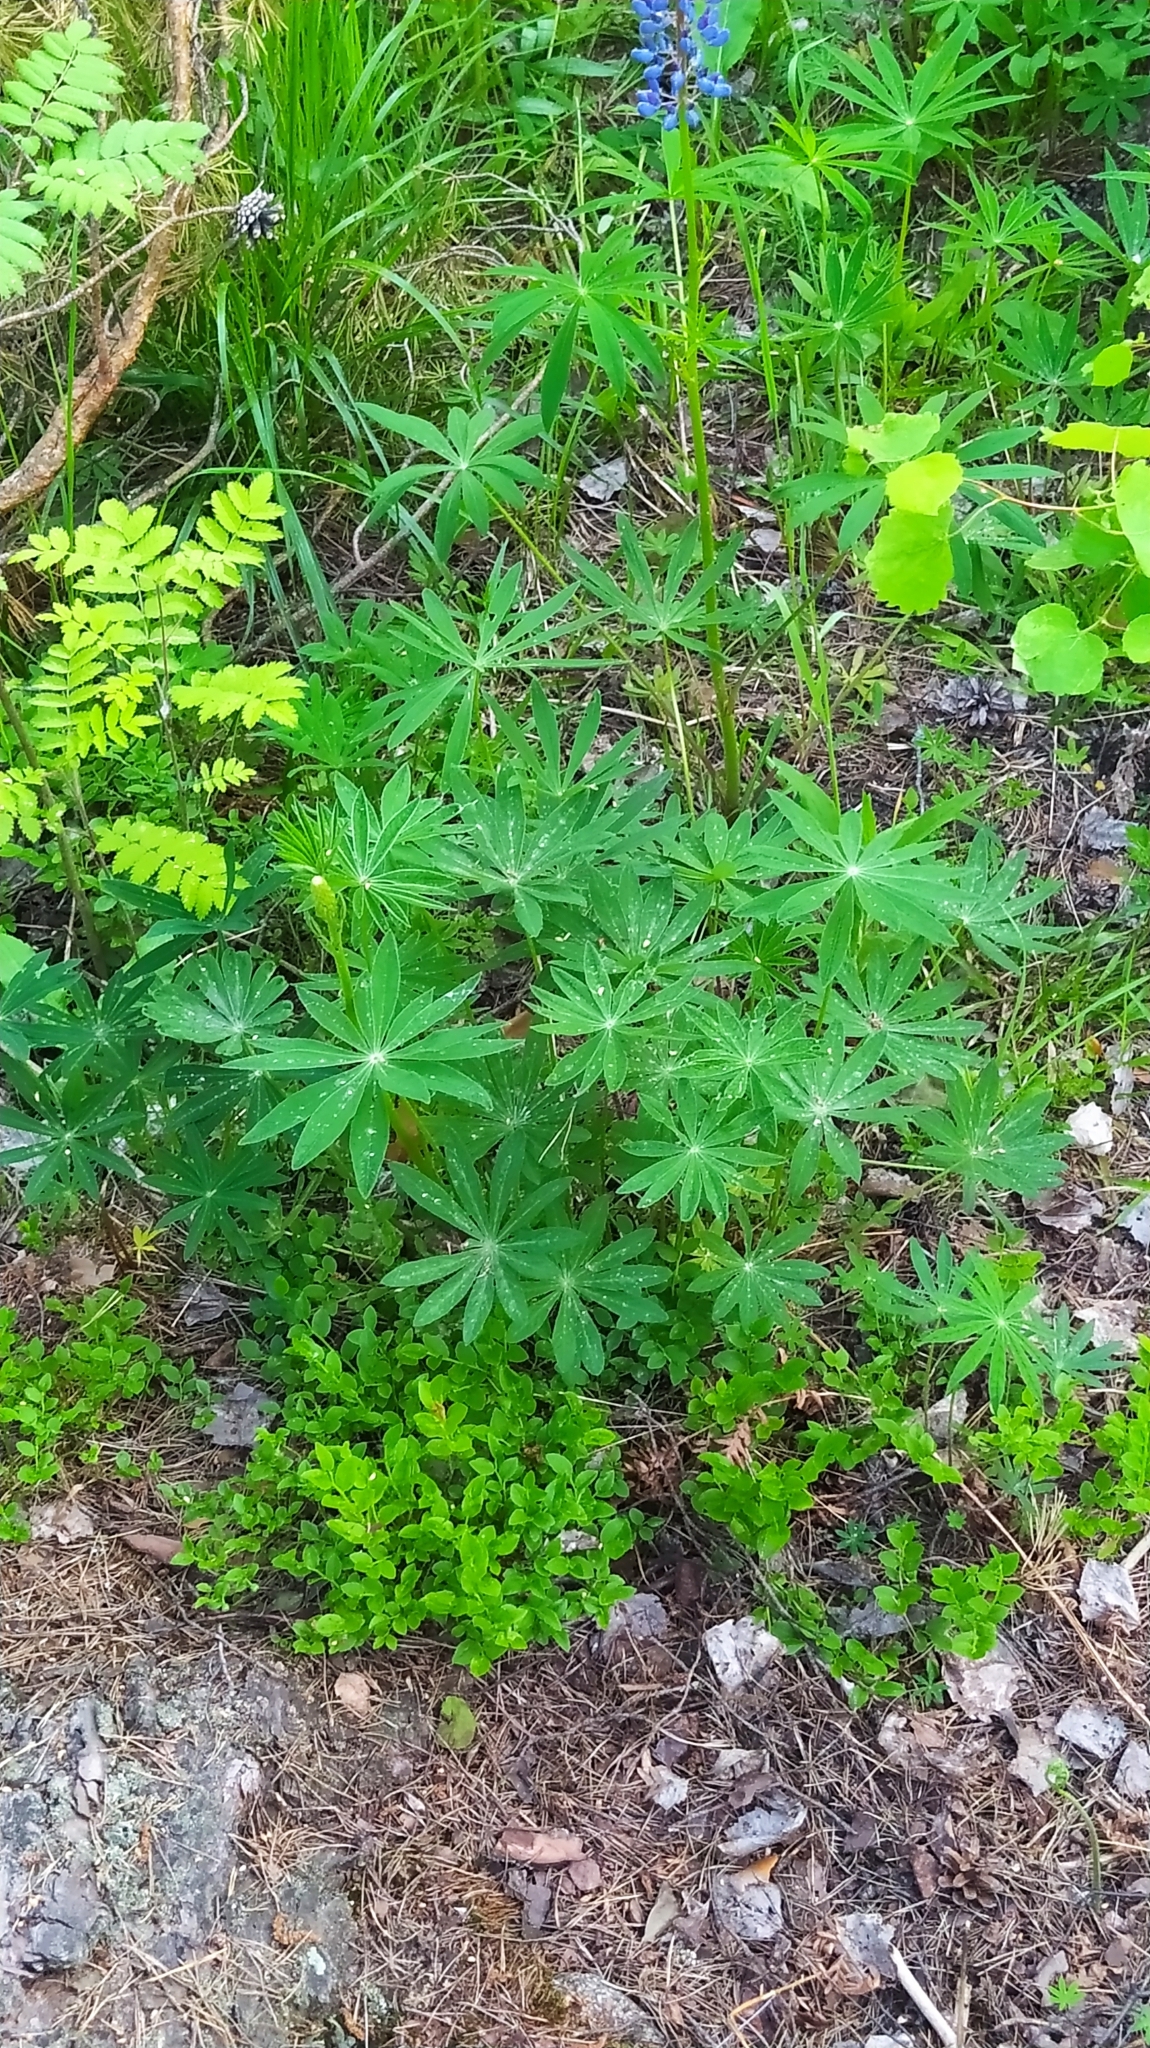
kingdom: Plantae
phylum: Tracheophyta
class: Magnoliopsida
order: Fabales
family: Fabaceae
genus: Lupinus
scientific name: Lupinus polyphyllus
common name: Garden lupin
